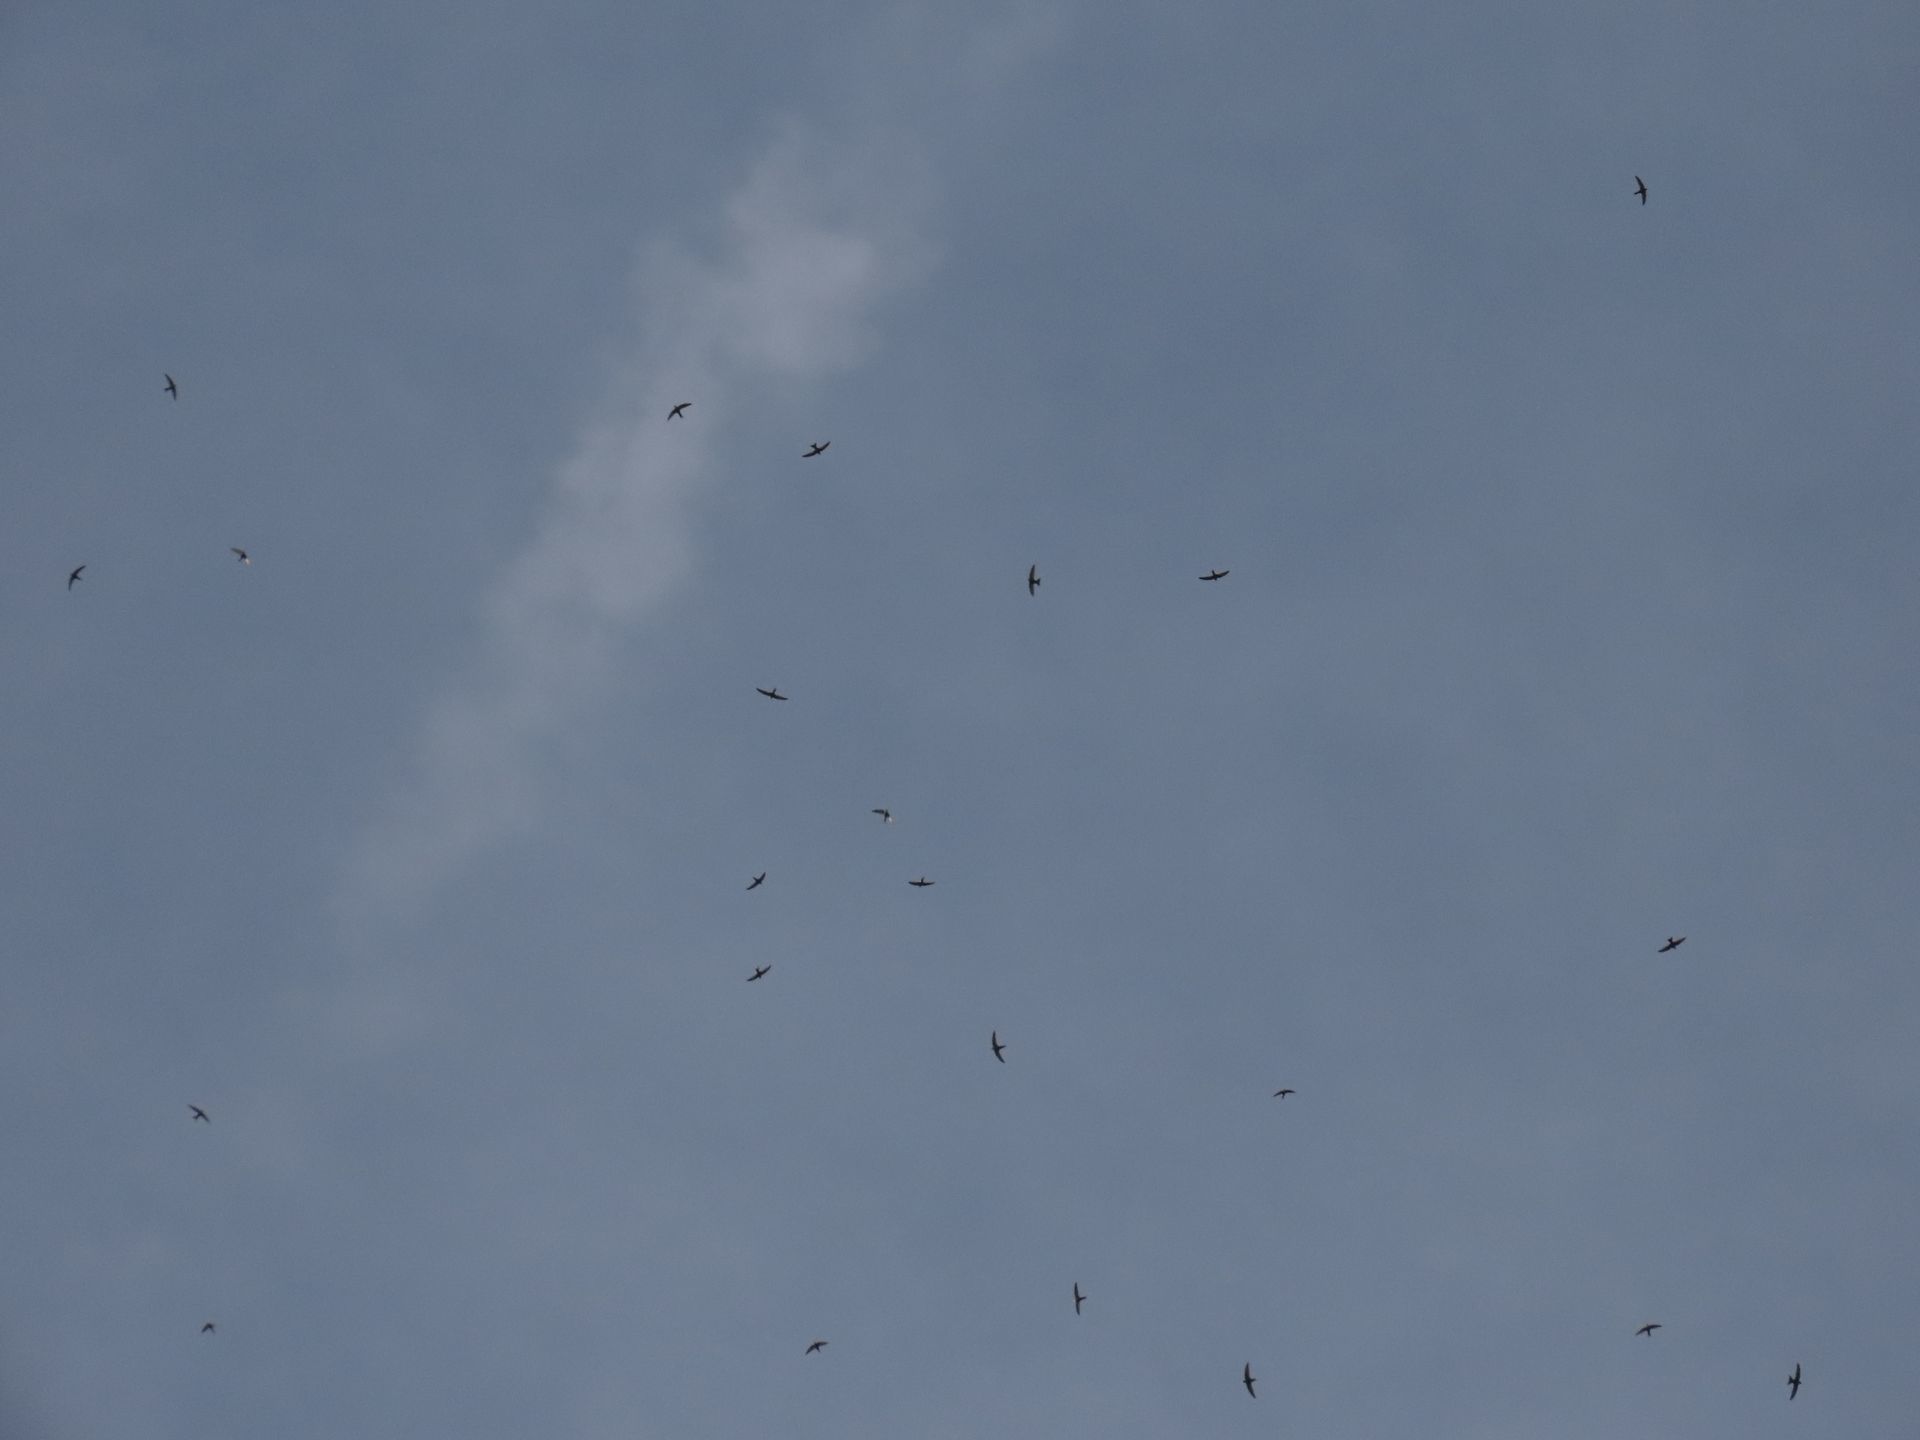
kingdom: Animalia
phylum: Chordata
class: Aves
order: Apodiformes
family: Apodidae
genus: Apus
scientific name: Apus pacificus
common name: Pacific swift
